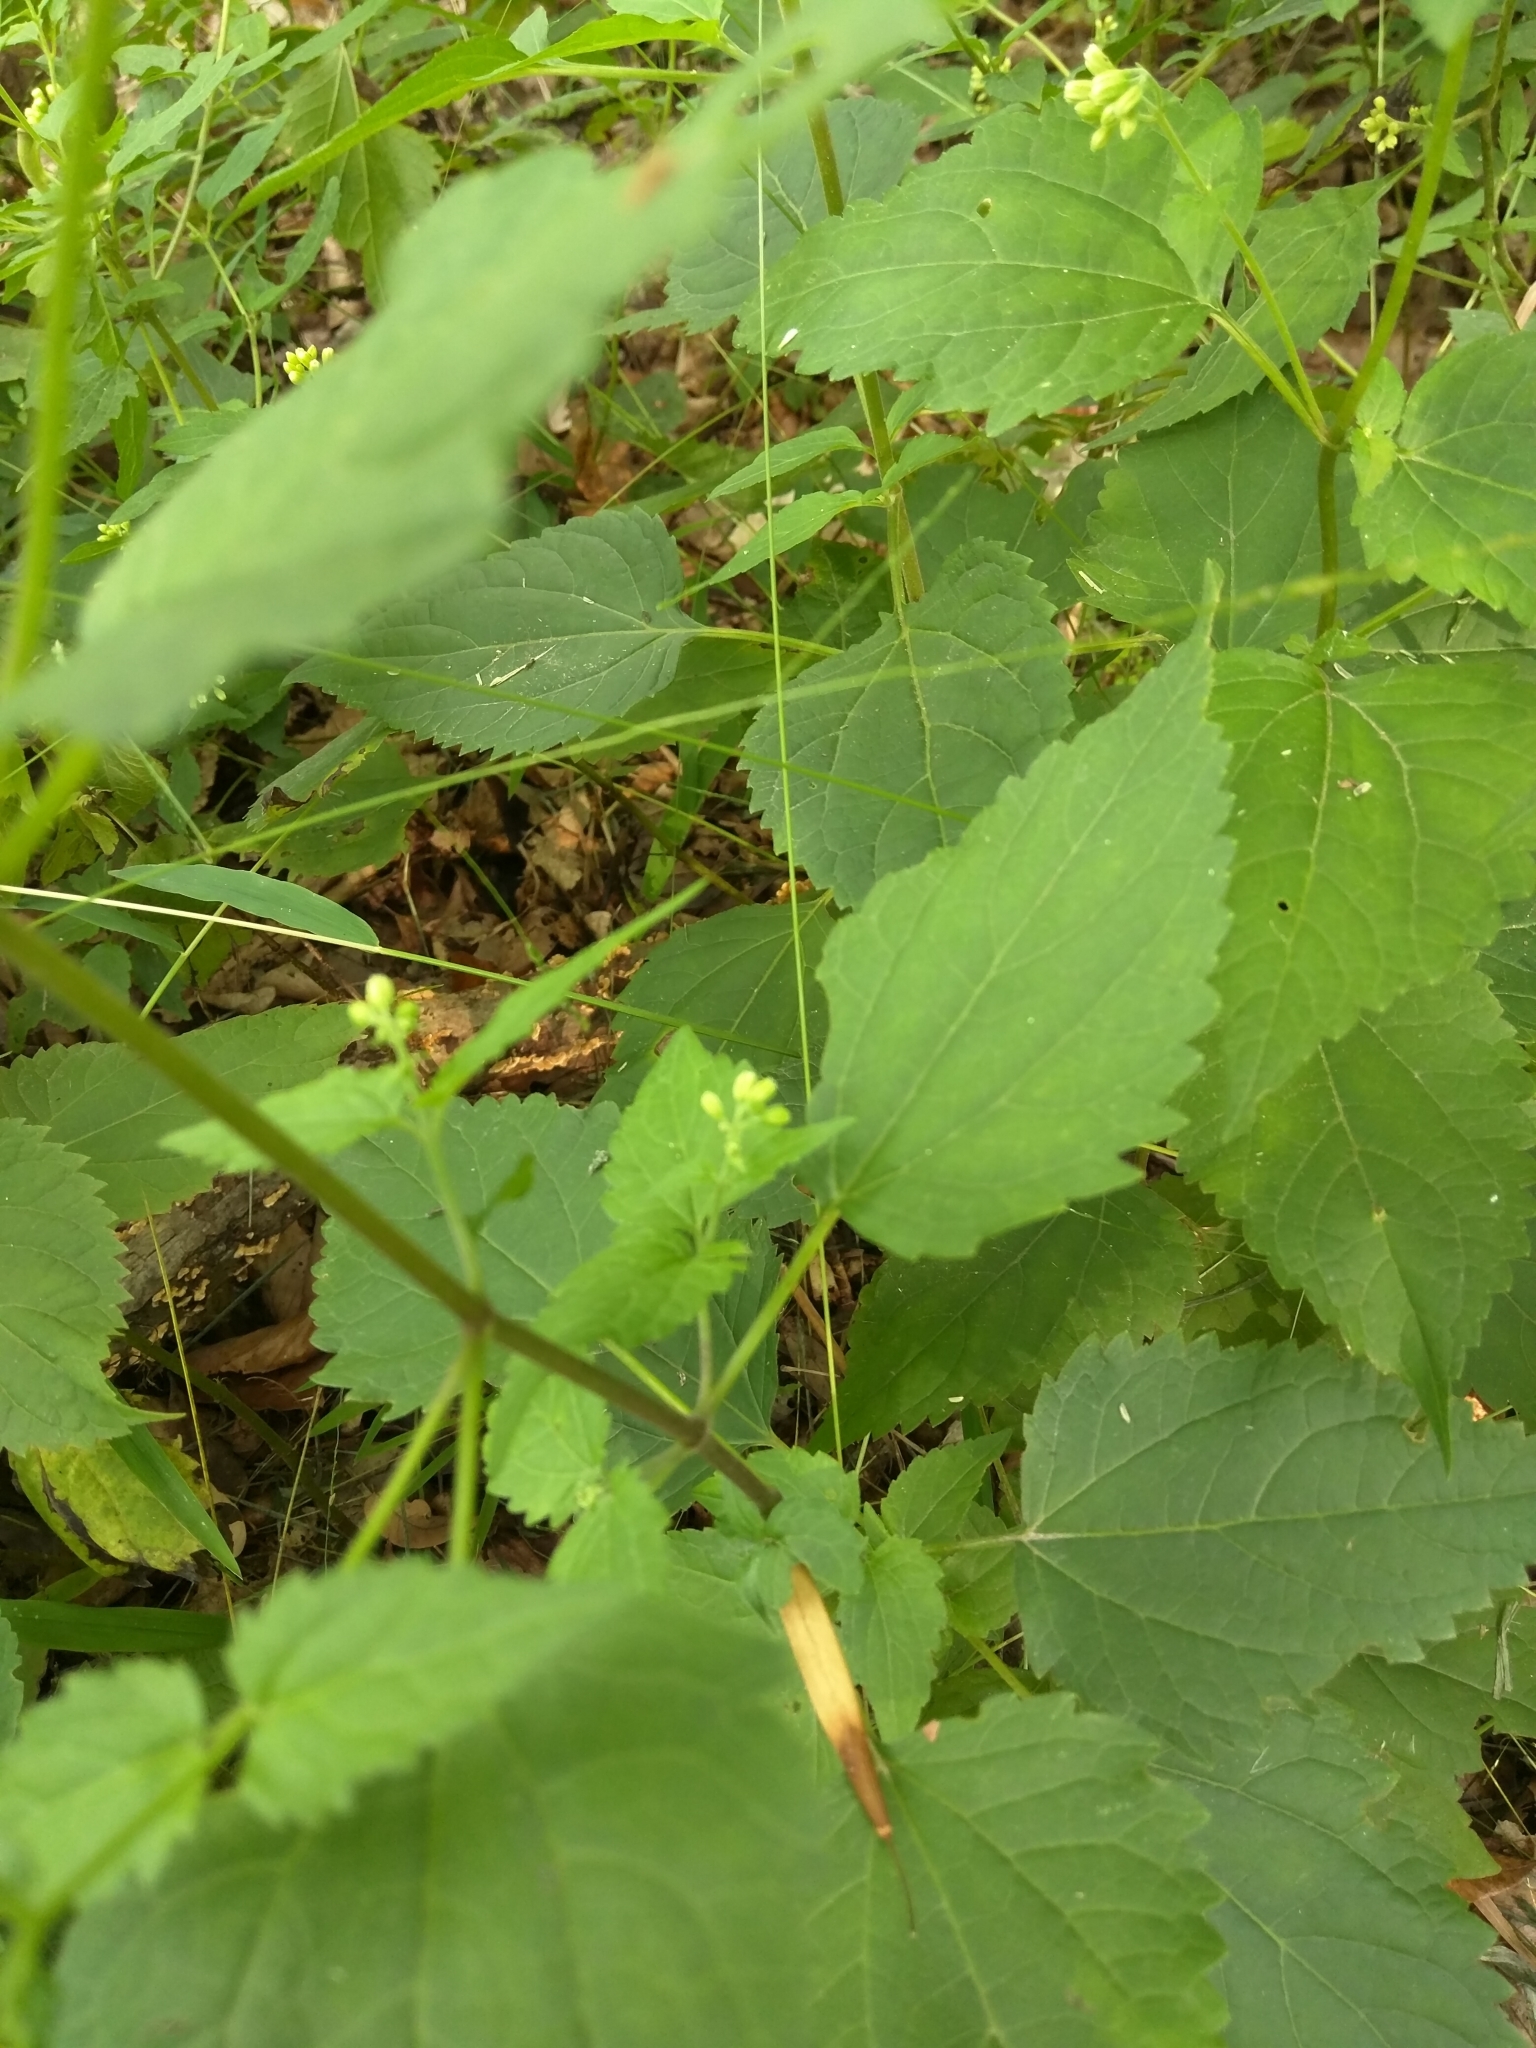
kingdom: Plantae
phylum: Tracheophyta
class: Magnoliopsida
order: Asterales
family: Asteraceae
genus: Ageratina
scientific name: Ageratina altissima
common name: White snakeroot
